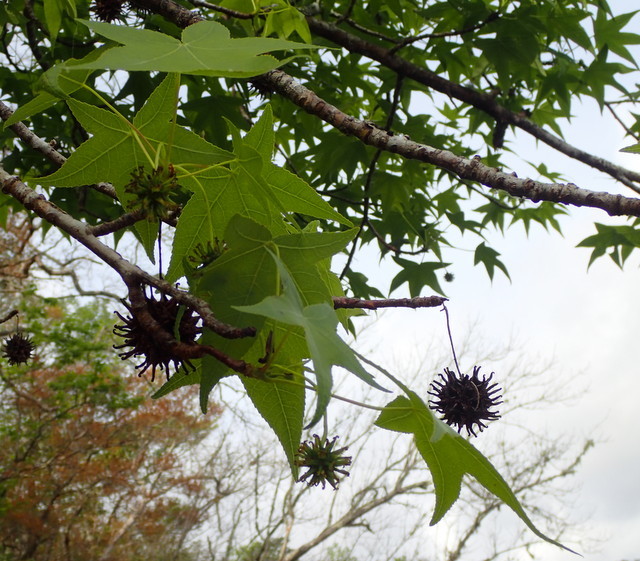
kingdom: Plantae
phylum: Tracheophyta
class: Magnoliopsida
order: Saxifragales
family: Altingiaceae
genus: Liquidambar
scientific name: Liquidambar styraciflua
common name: Sweet gum
